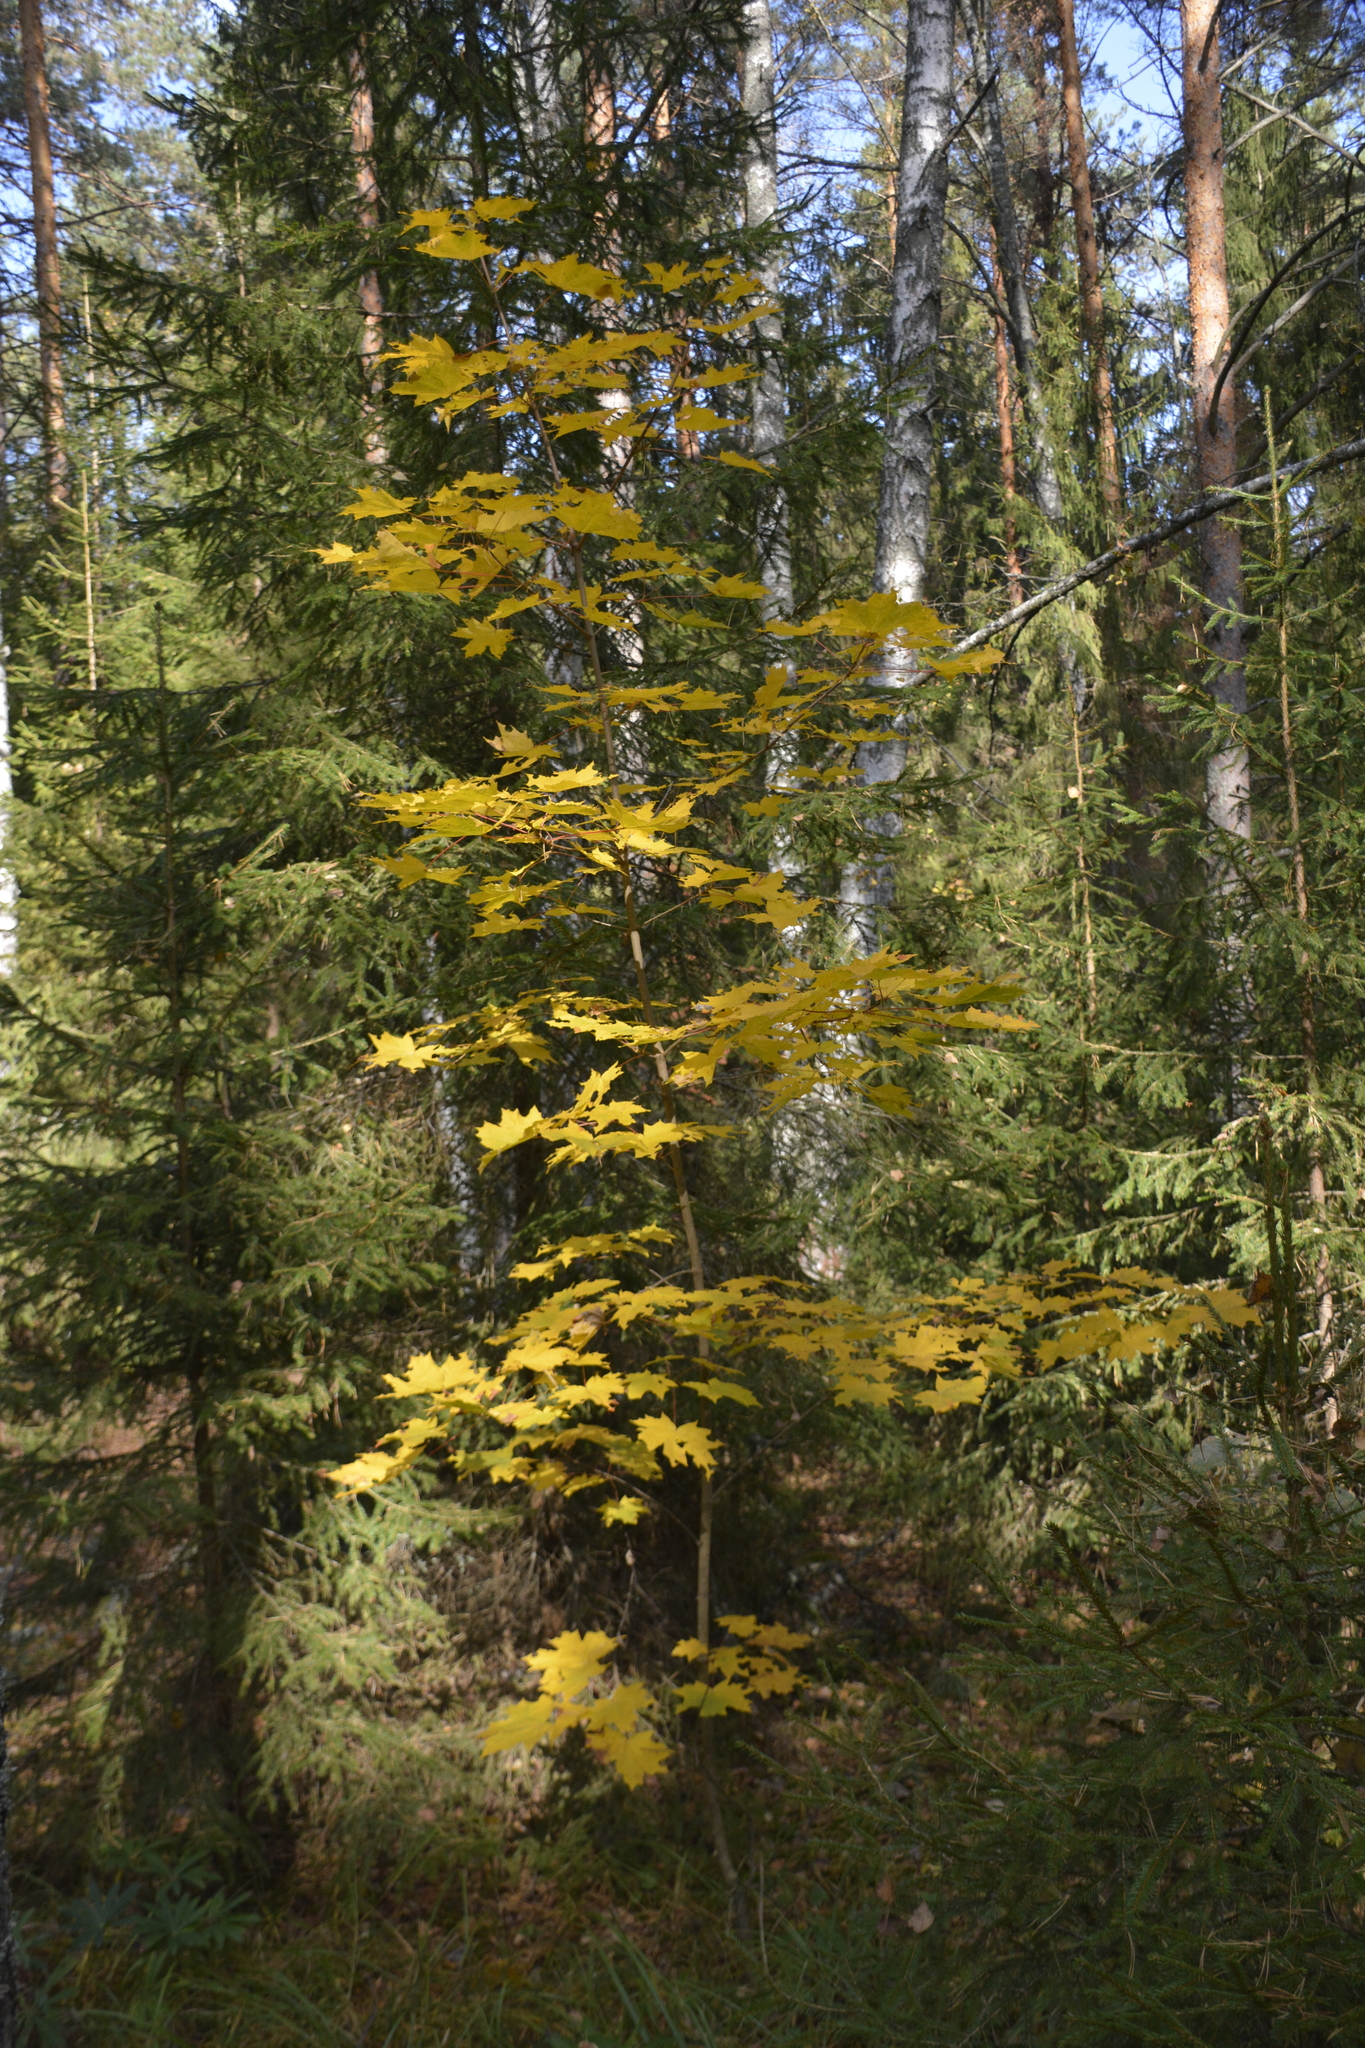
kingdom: Plantae
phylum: Tracheophyta
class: Magnoliopsida
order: Sapindales
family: Sapindaceae
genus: Acer
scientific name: Acer platanoides
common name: Norway maple
